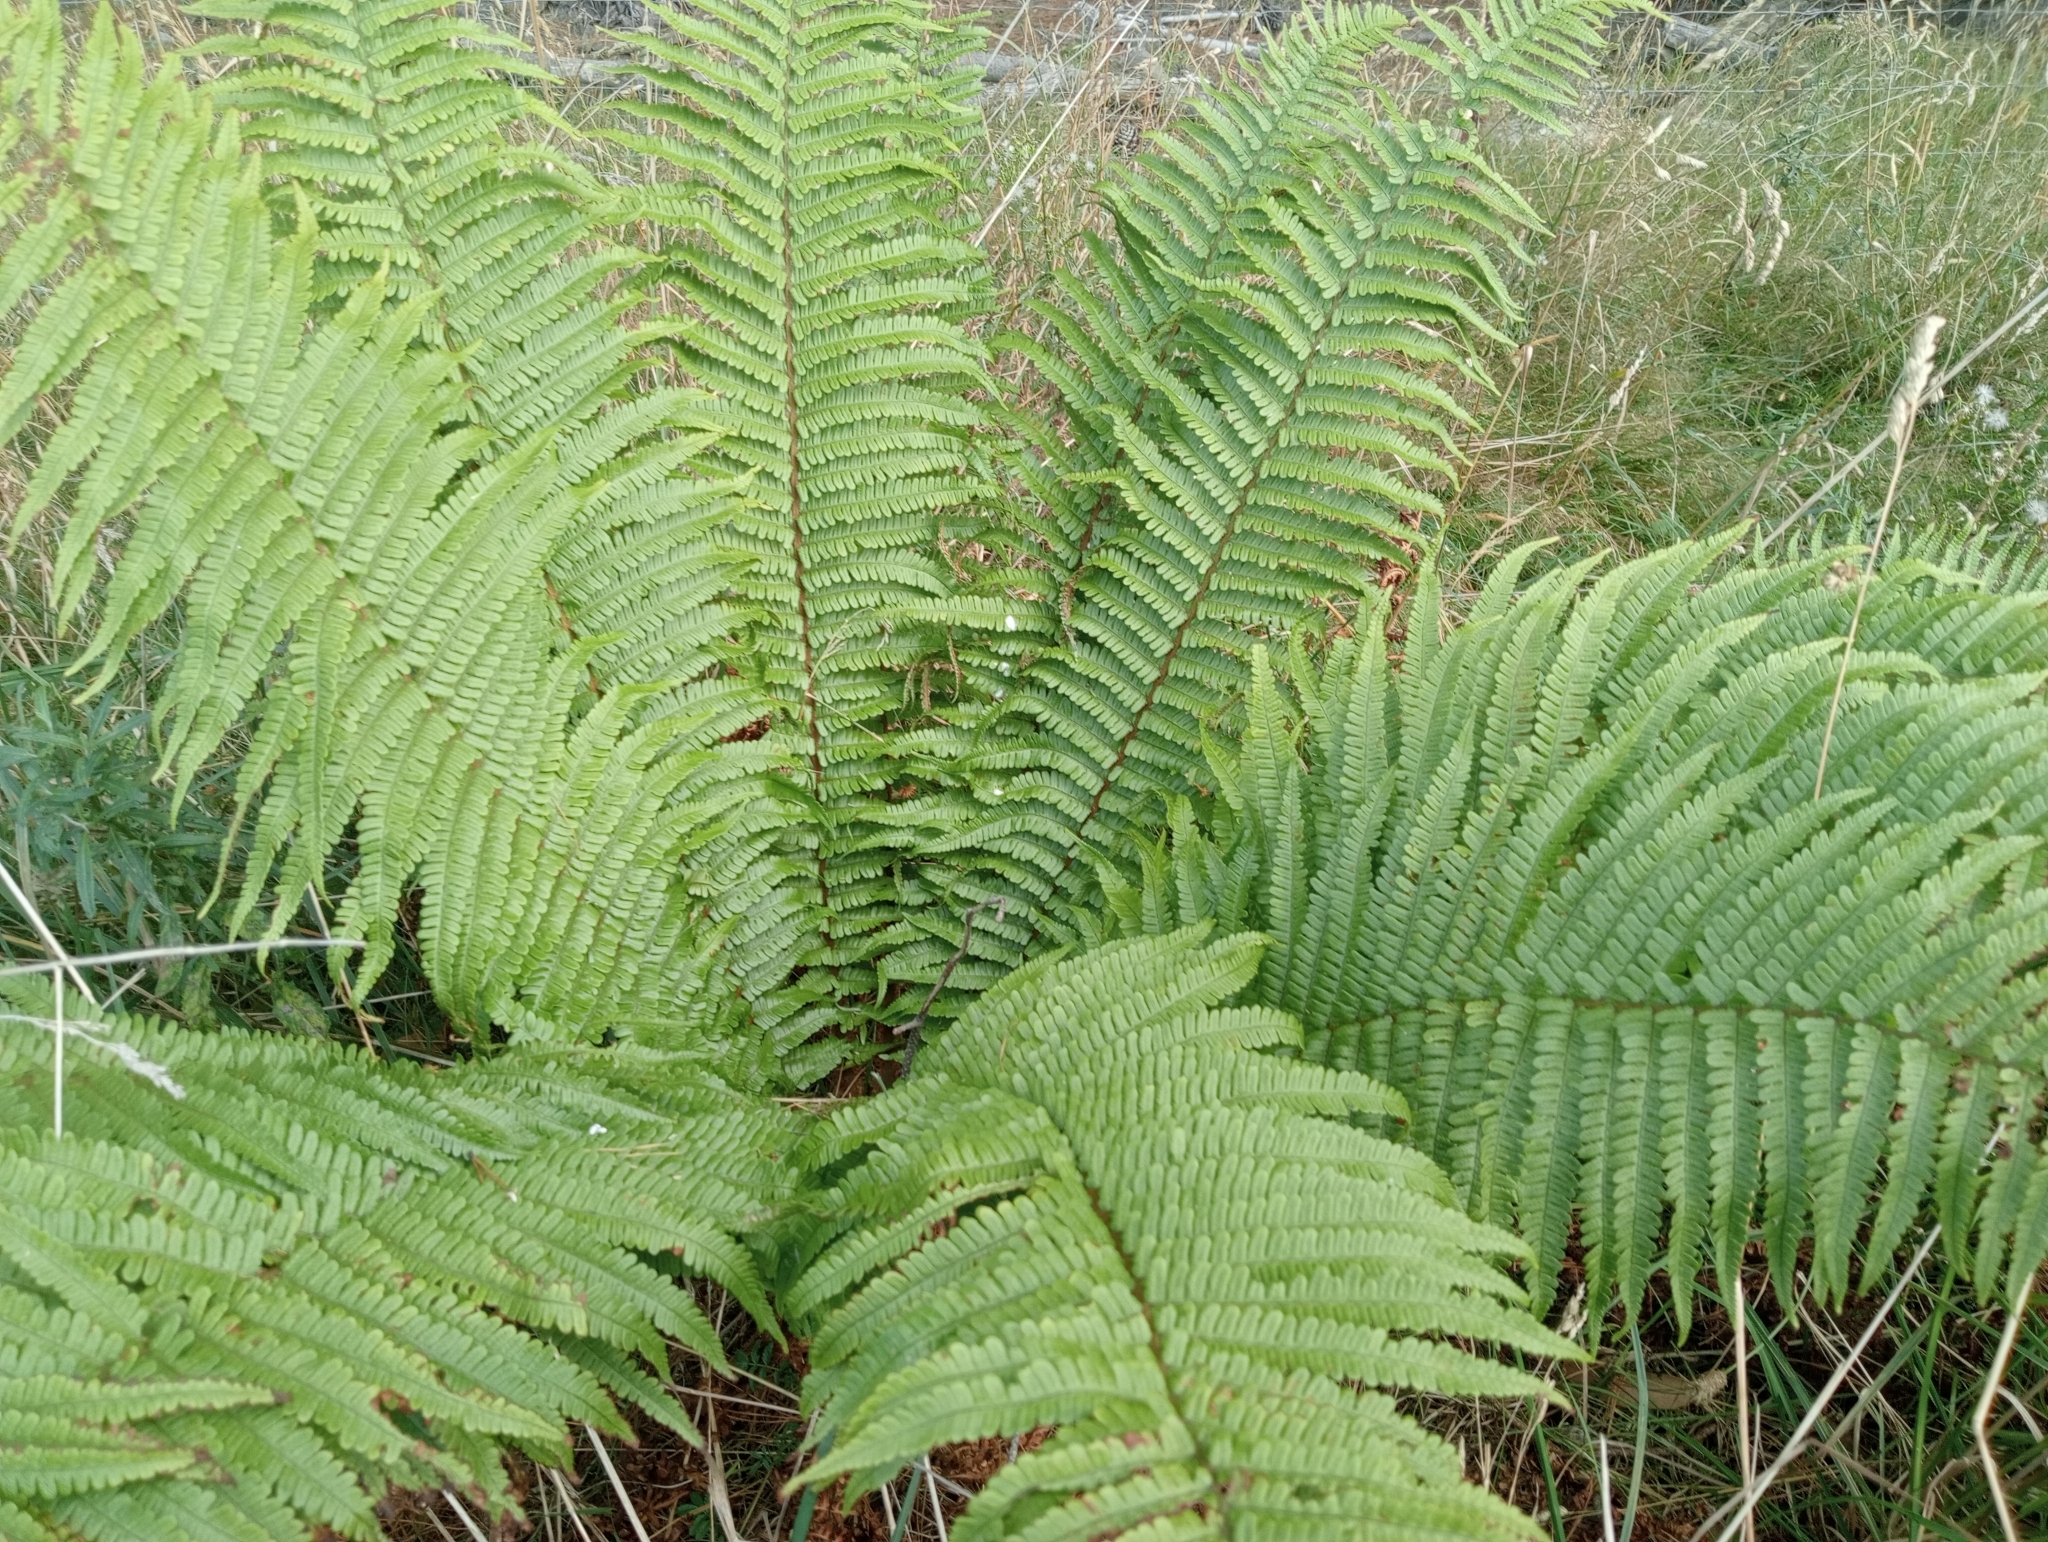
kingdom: Plantae
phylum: Tracheophyta
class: Polypodiopsida
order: Polypodiales
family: Dryopteridaceae
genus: Dryopteris
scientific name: Dryopteris affinis
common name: Scaly male fern
